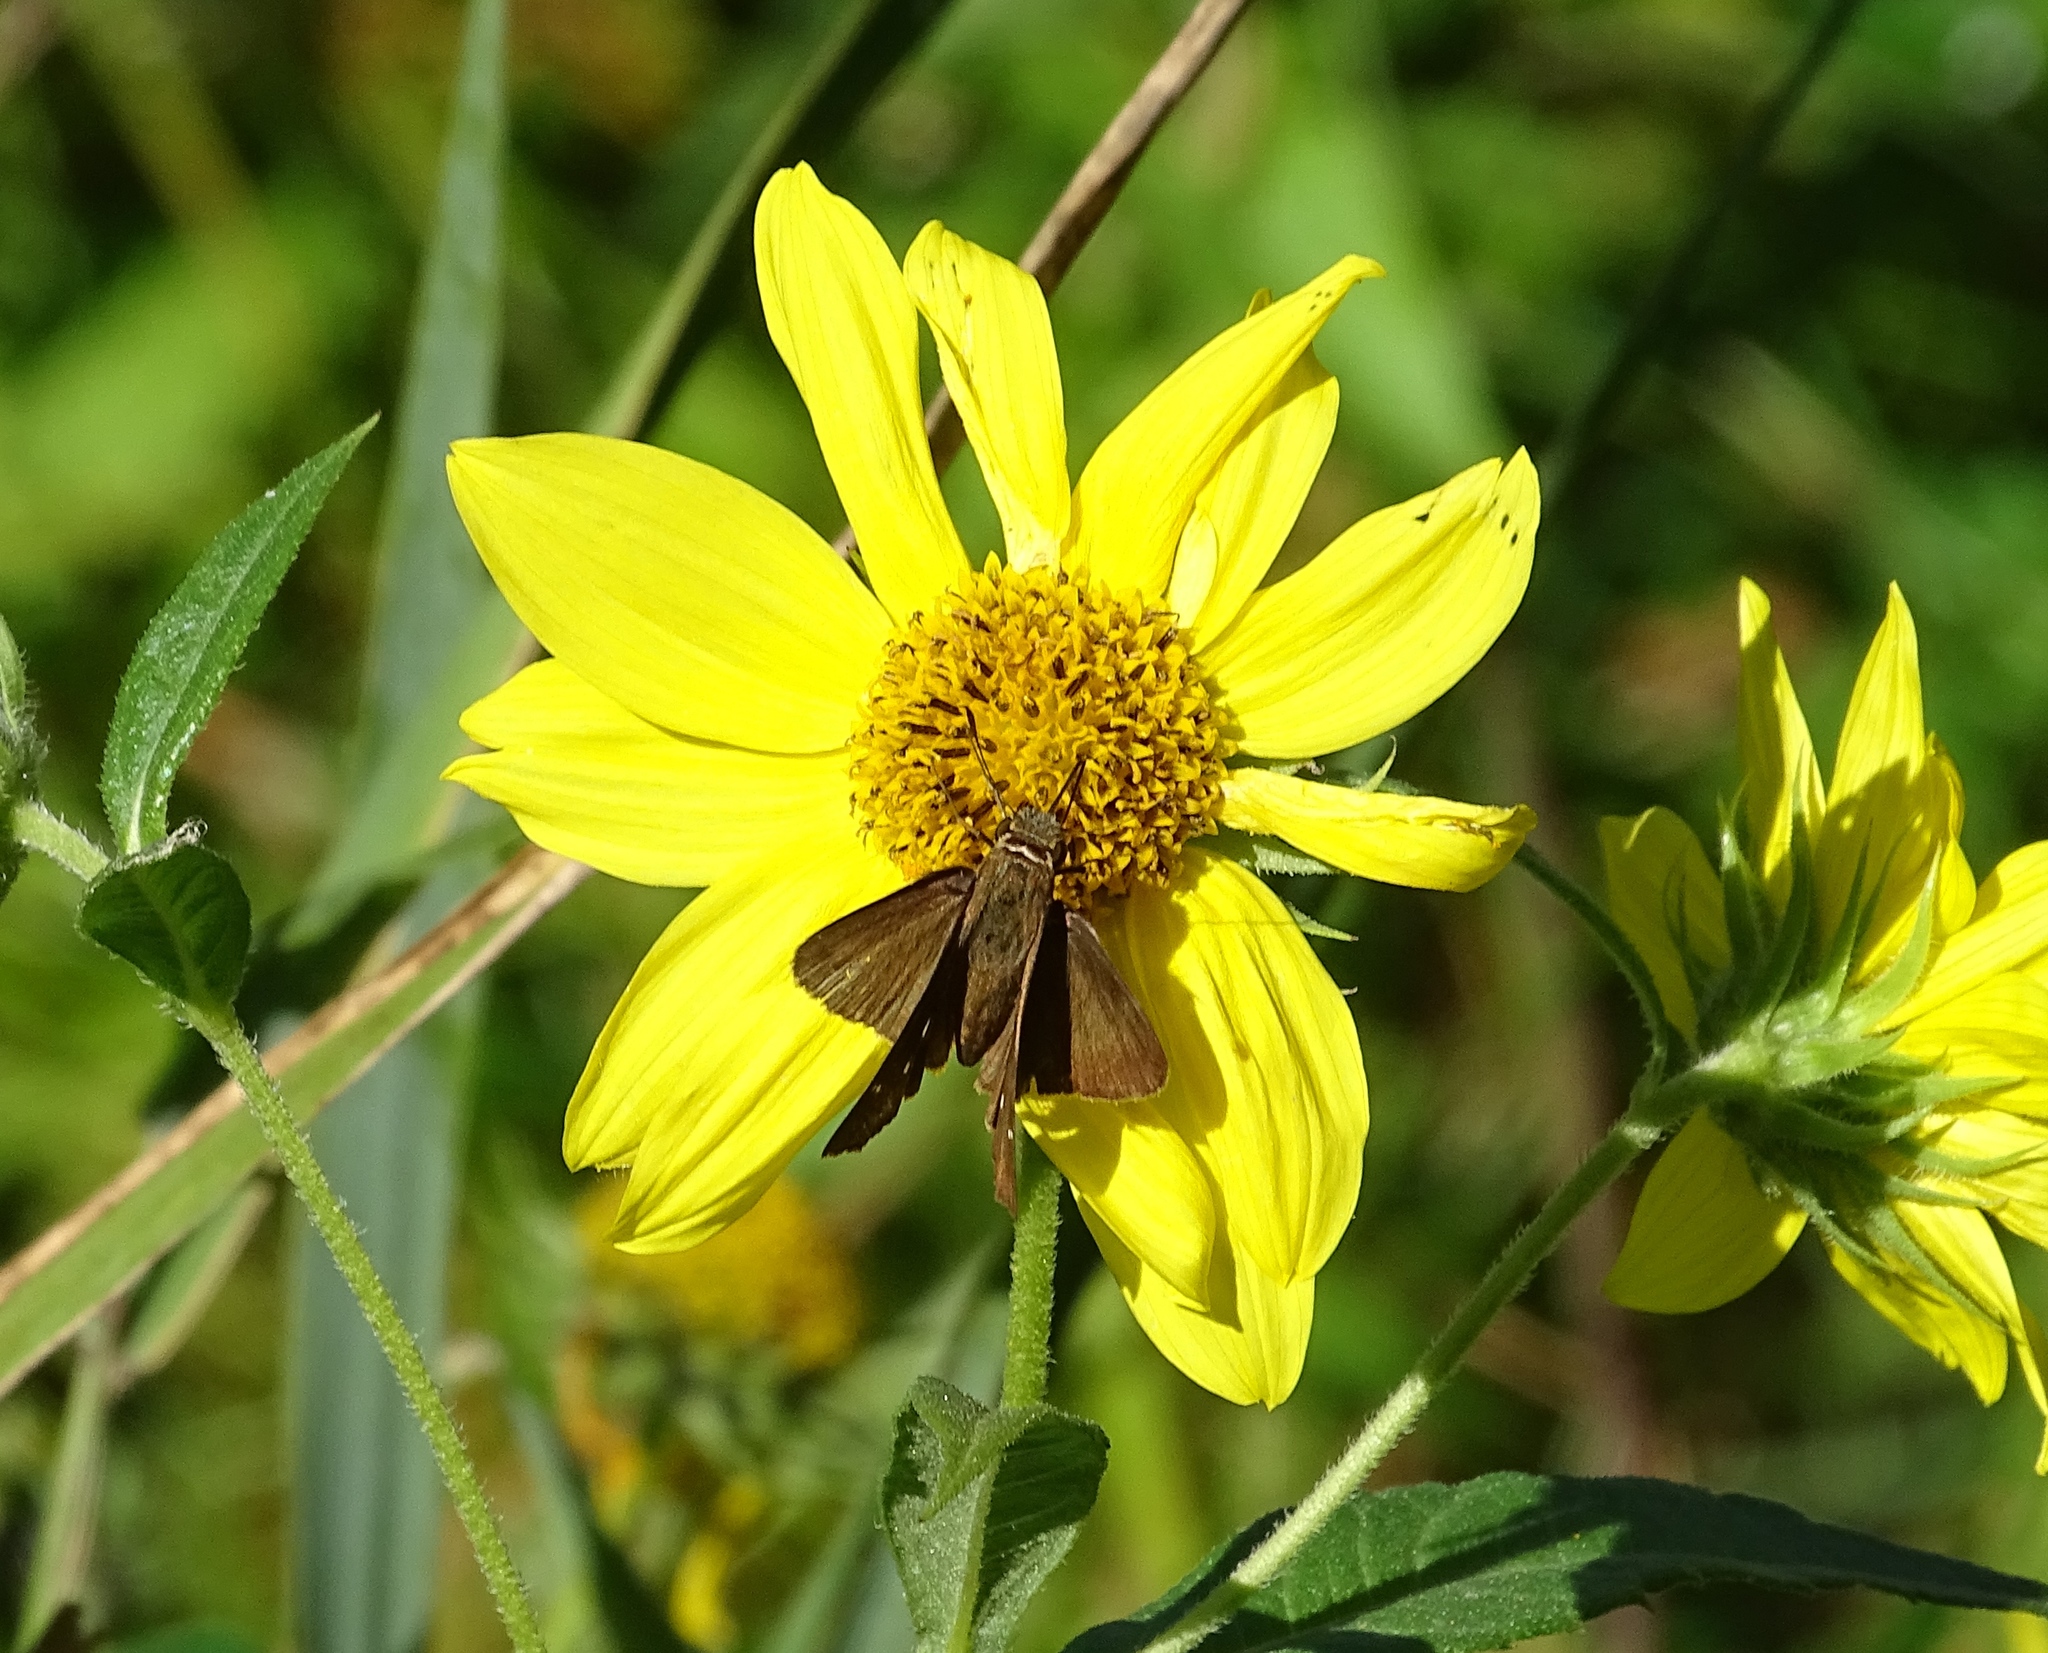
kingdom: Animalia
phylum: Arthropoda
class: Insecta
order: Lepidoptera
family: Hesperiidae
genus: Panoquina
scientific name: Panoquina ocola
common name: Ocola skipper
